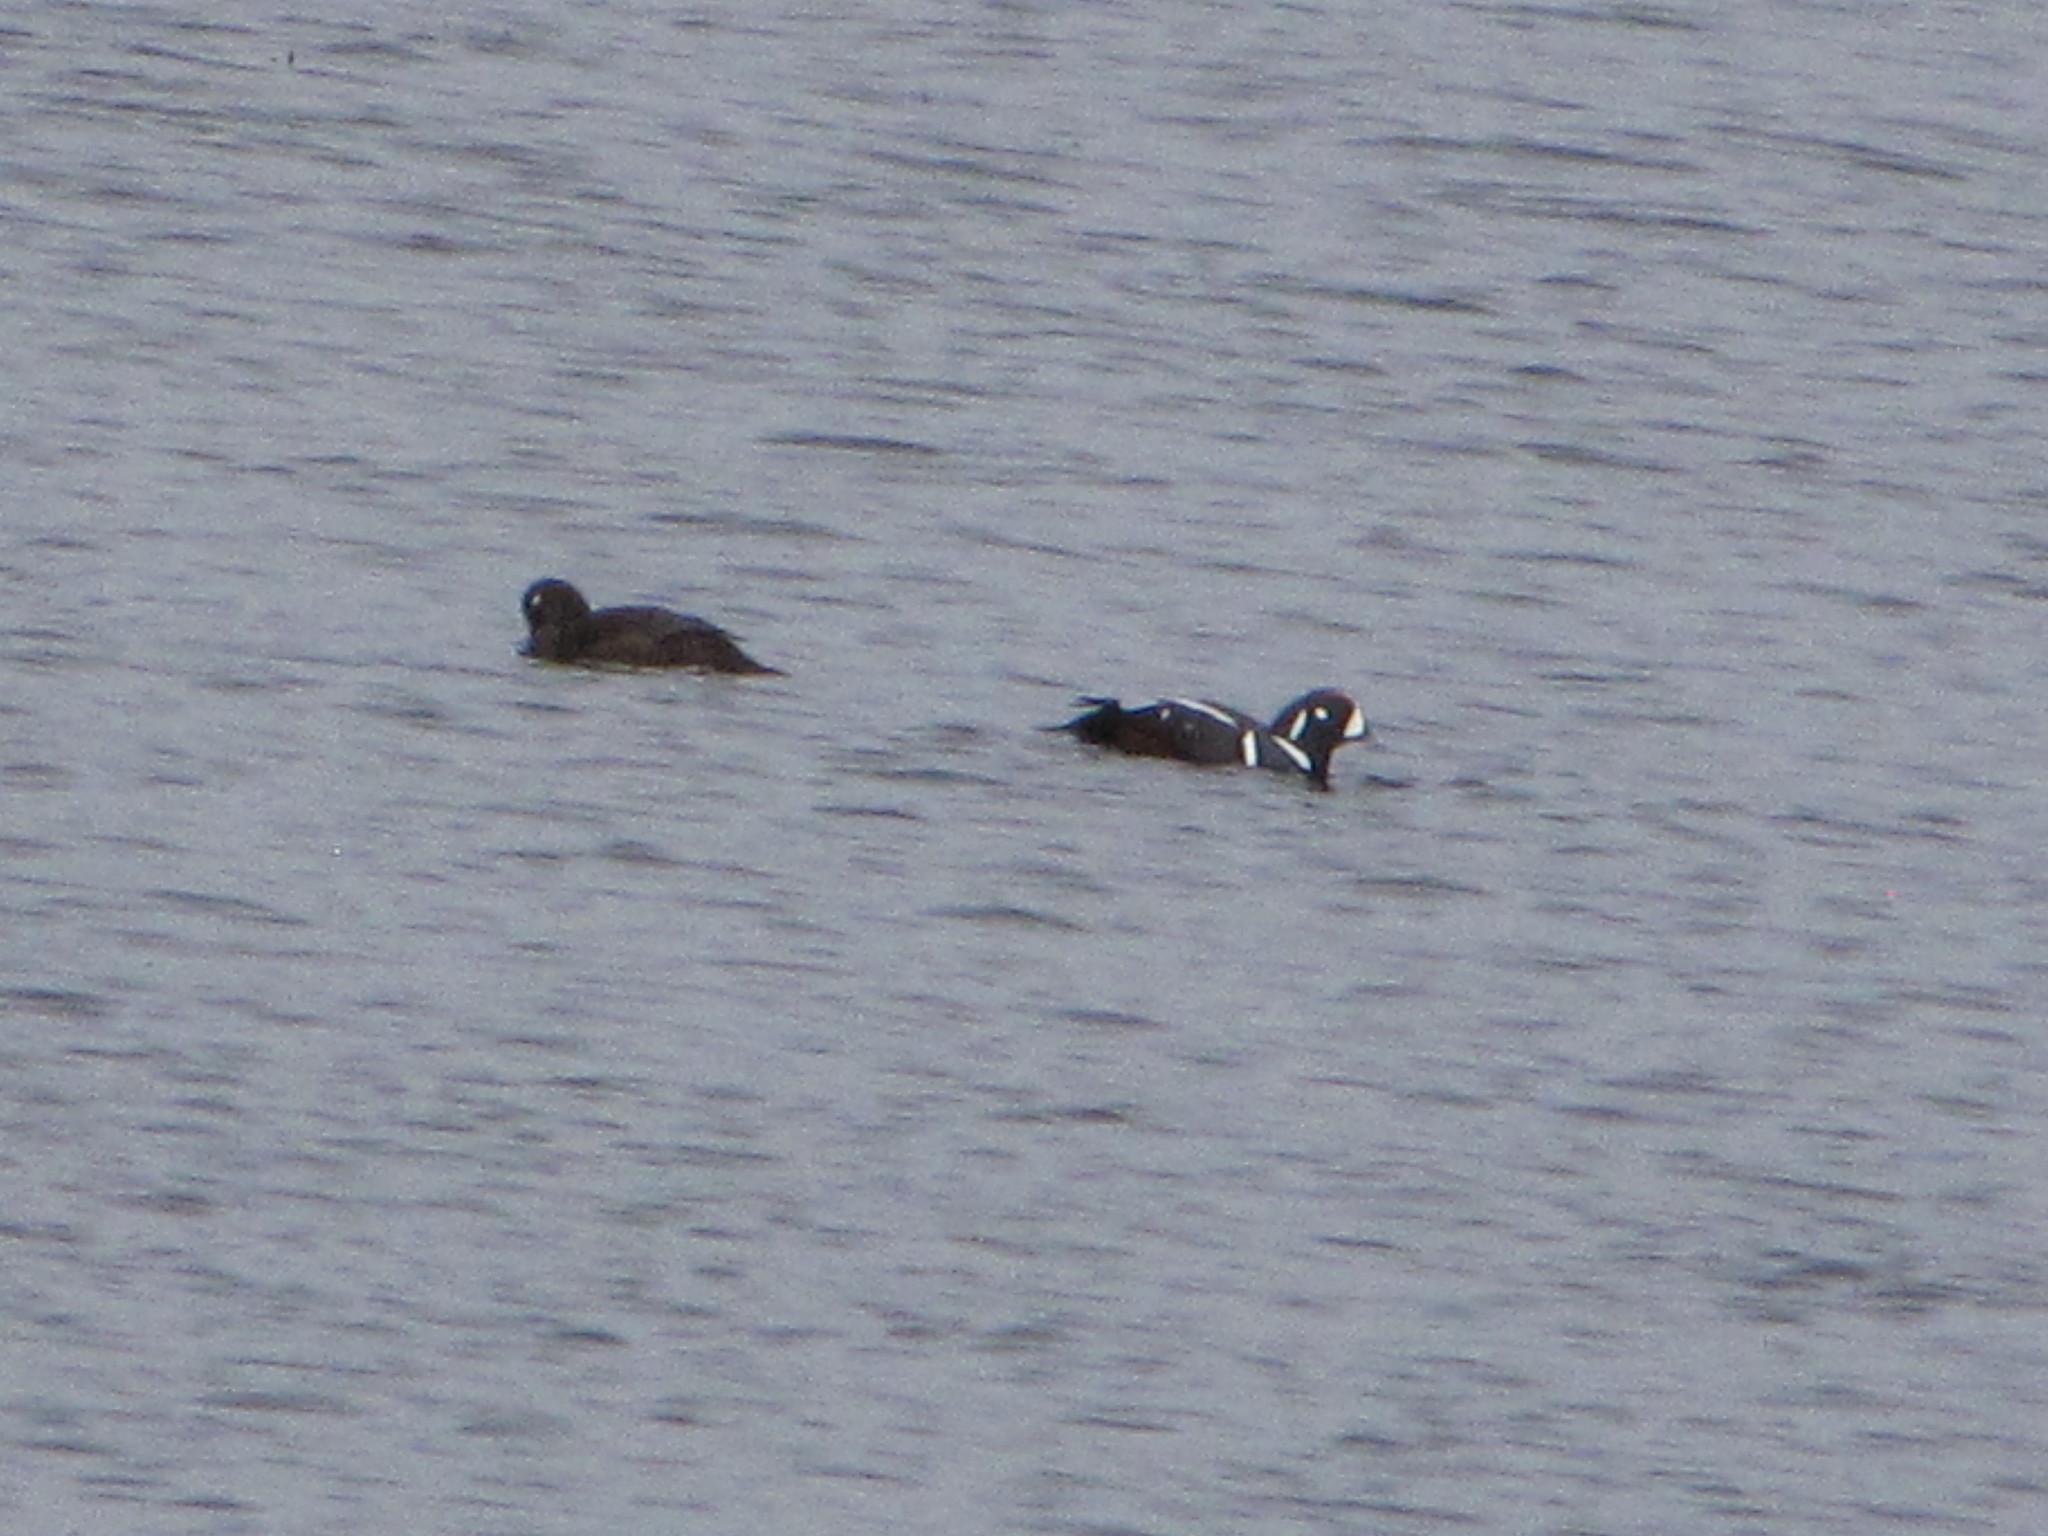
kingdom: Animalia
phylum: Chordata
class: Aves
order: Anseriformes
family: Anatidae
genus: Histrionicus
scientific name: Histrionicus histrionicus
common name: Harlequin duck
